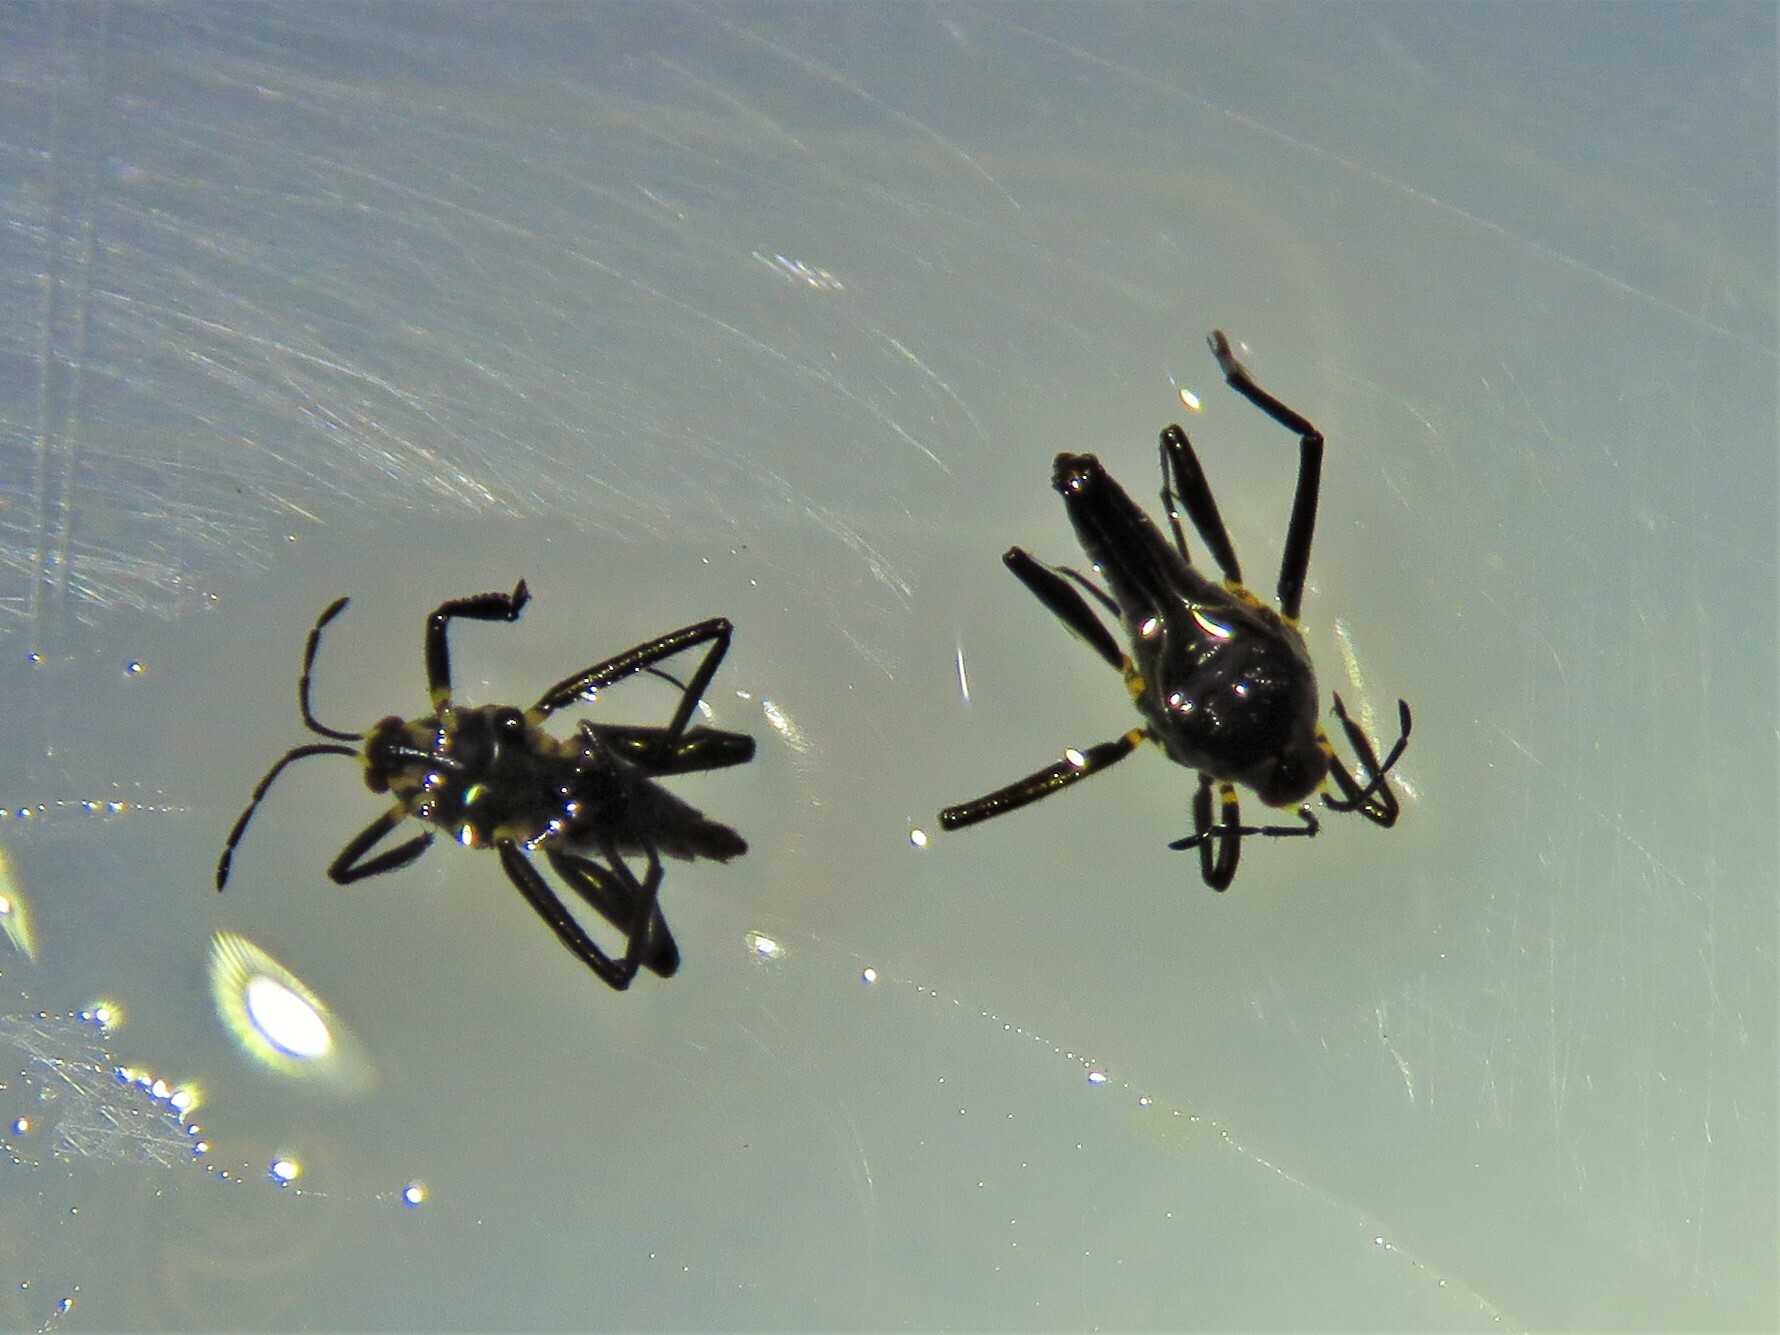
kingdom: Animalia
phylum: Arthropoda
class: Insecta
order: Hemiptera
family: Veliidae
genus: Rhagovelia
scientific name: Rhagovelia distincta
